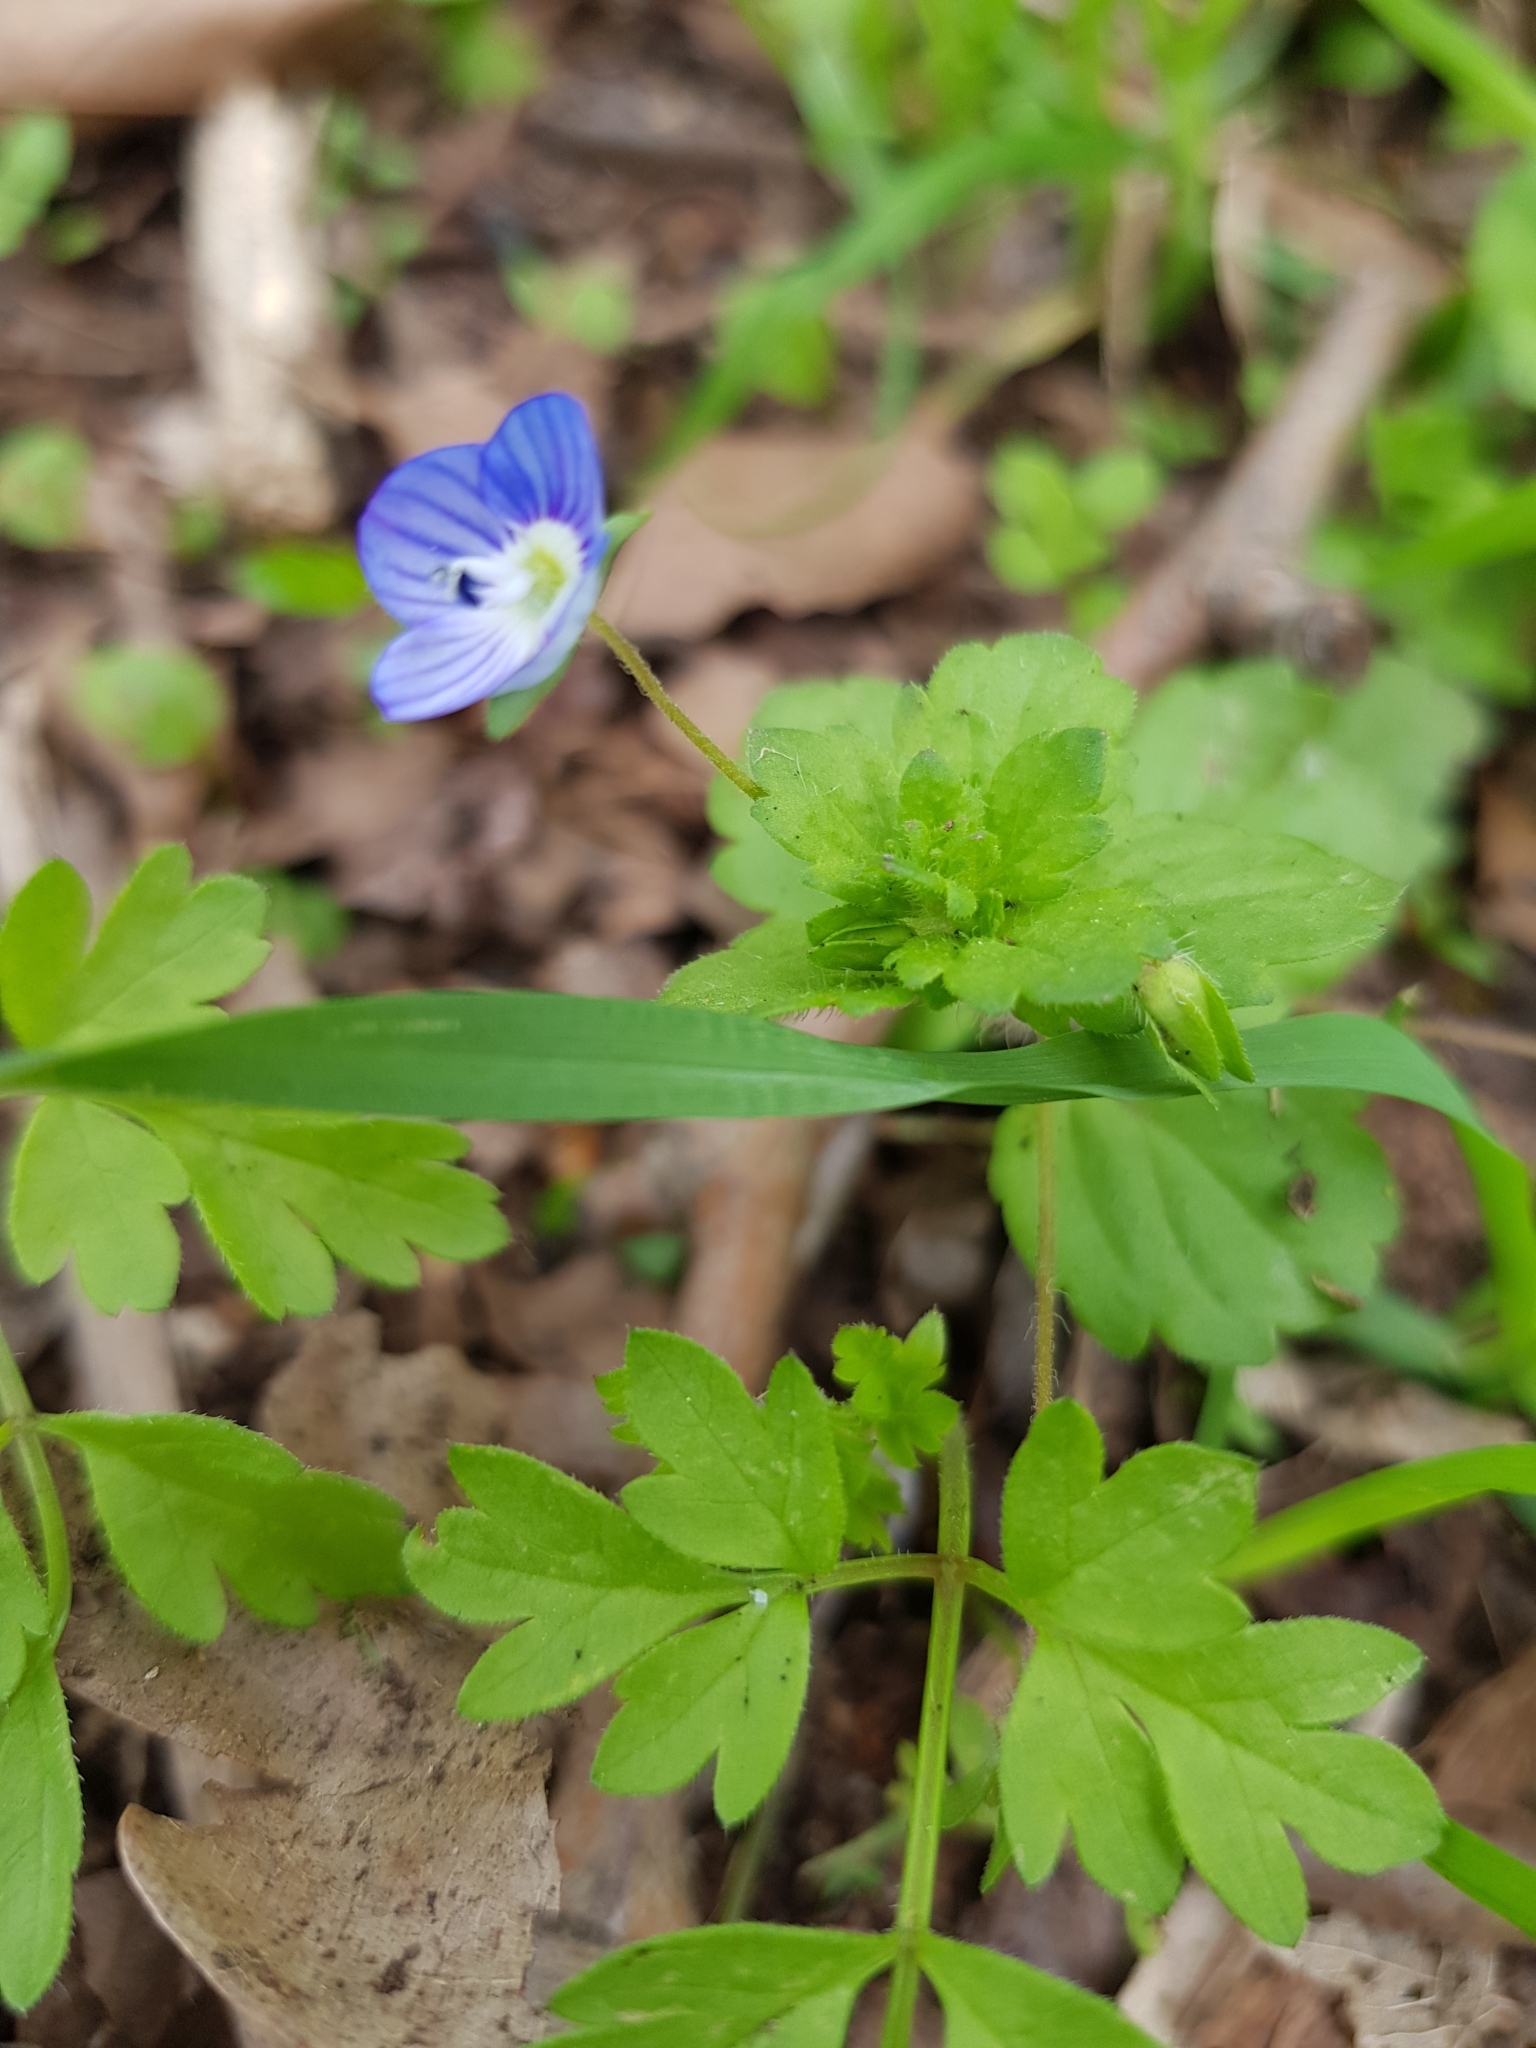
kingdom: Plantae
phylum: Tracheophyta
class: Magnoliopsida
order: Lamiales
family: Plantaginaceae
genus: Veronica
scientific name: Veronica persica
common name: Common field-speedwell
